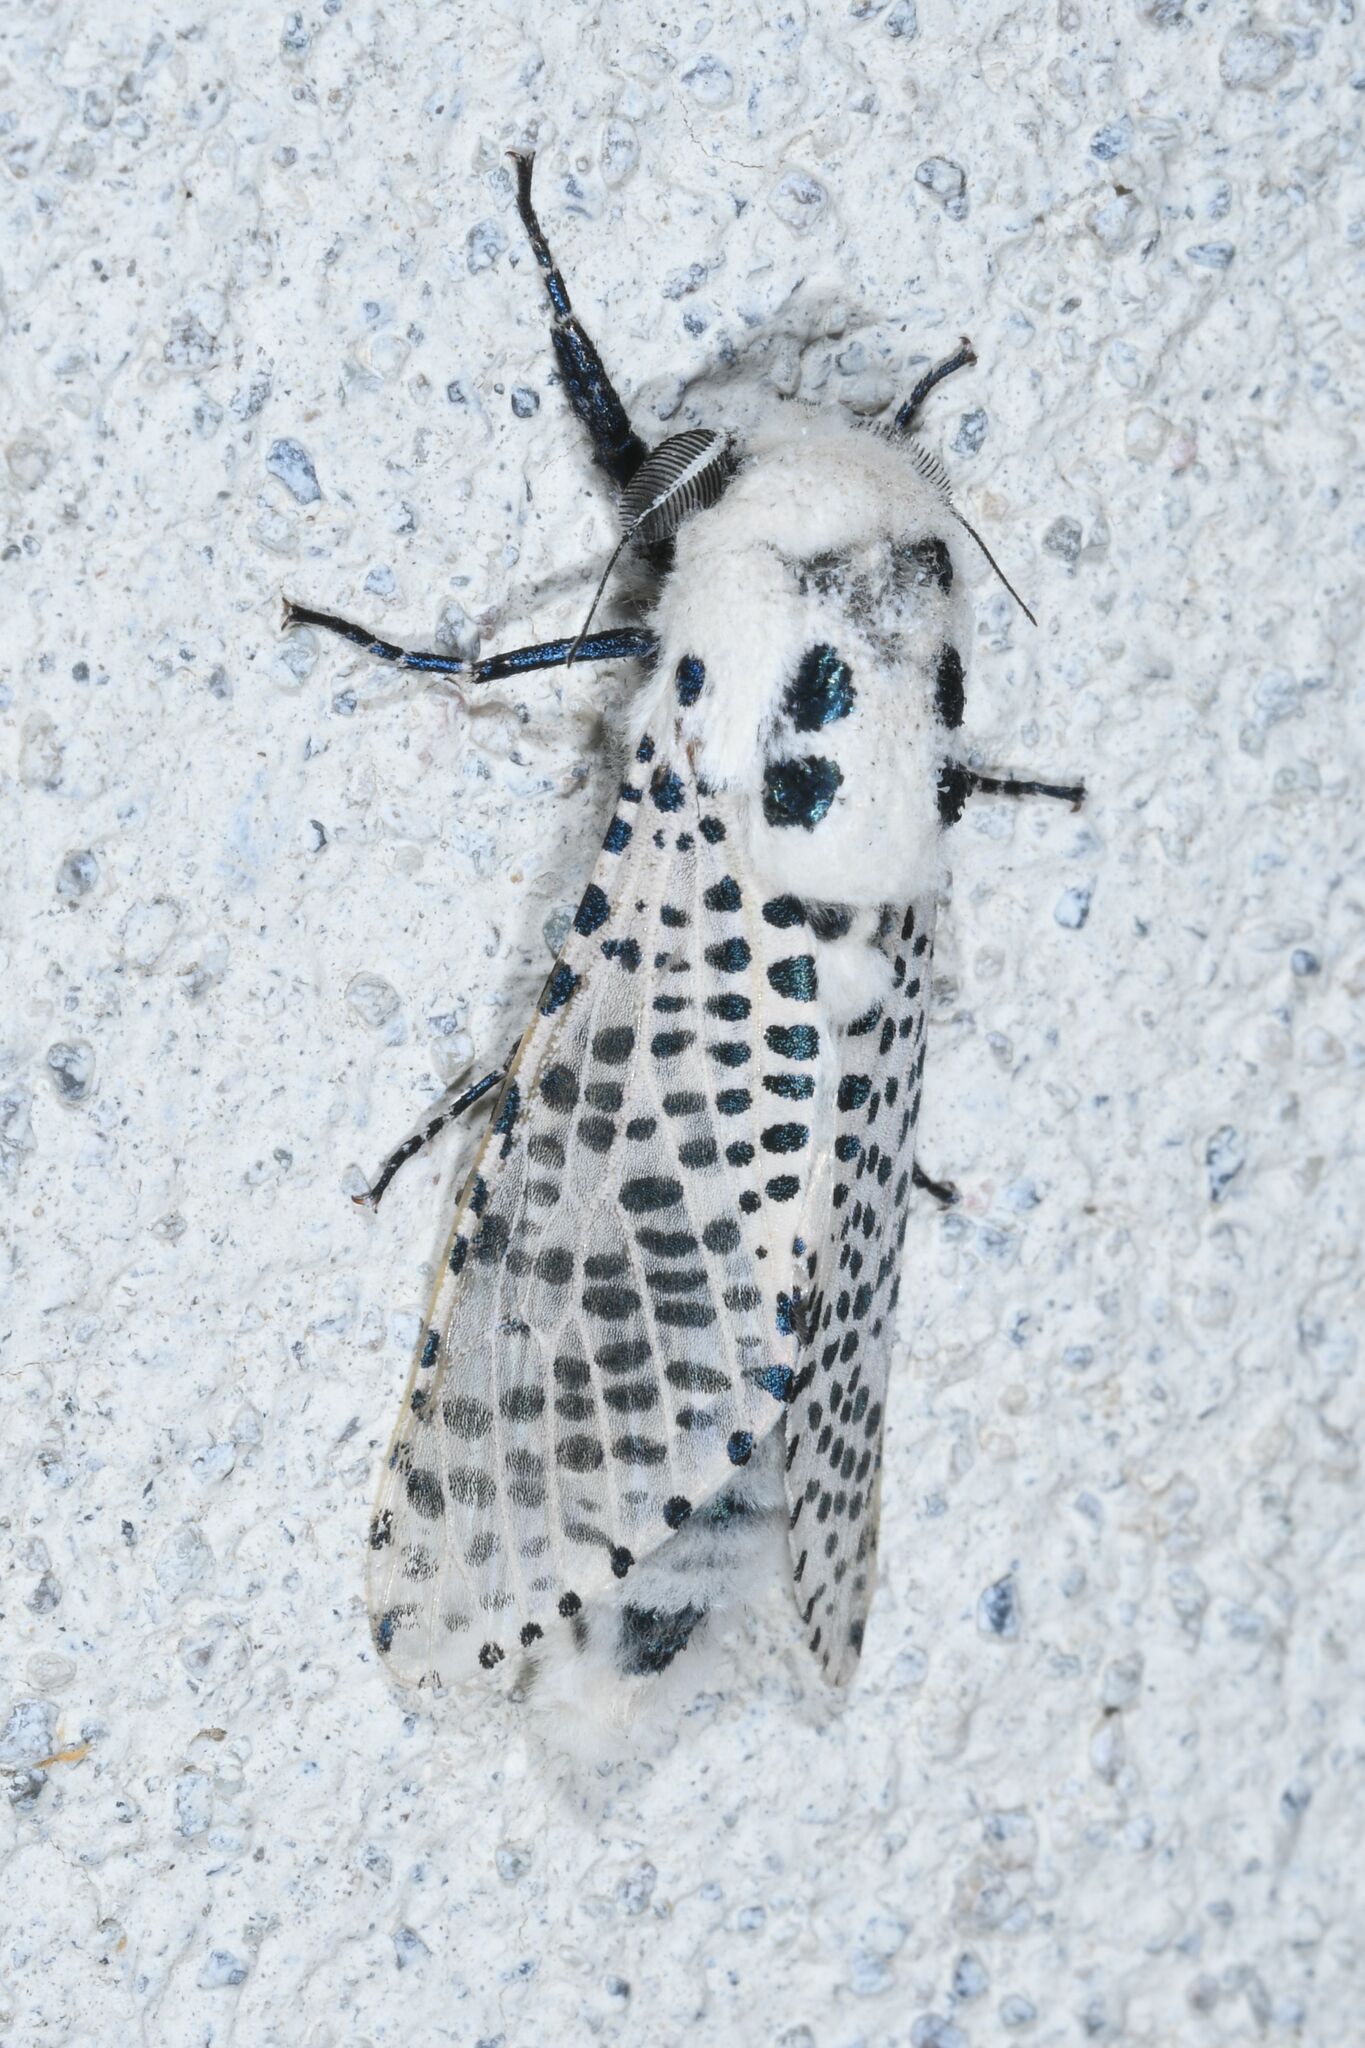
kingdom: Animalia
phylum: Arthropoda
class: Insecta
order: Lepidoptera
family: Cossidae
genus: Zeuzera
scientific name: Zeuzera pyrina
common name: Leopard moth
